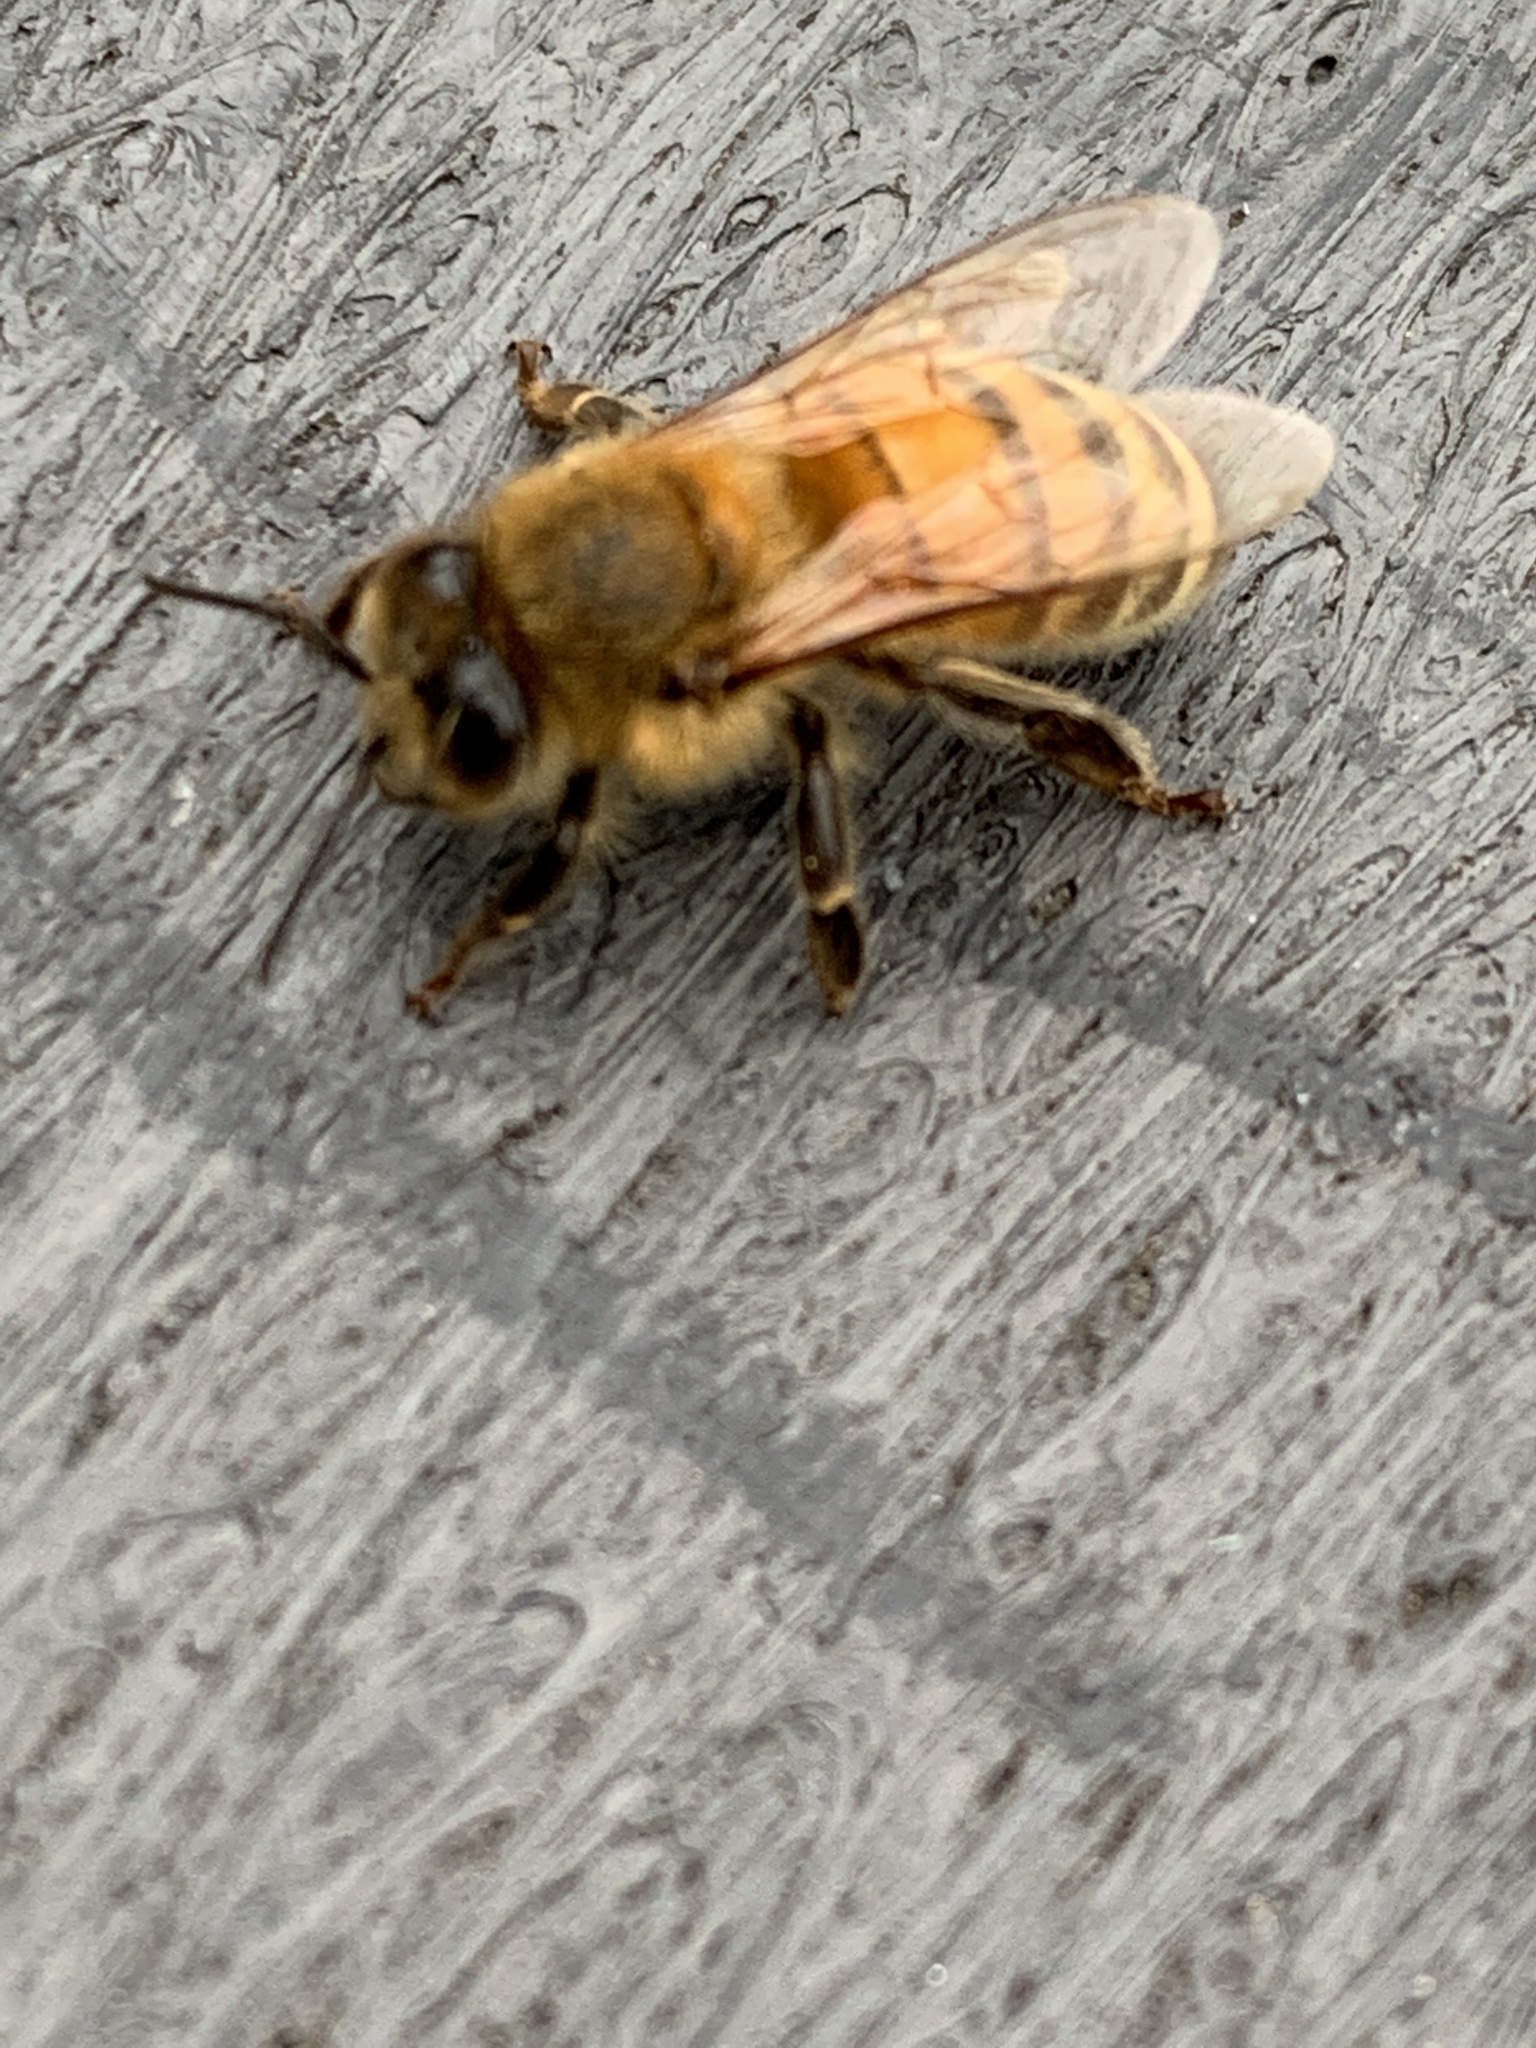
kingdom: Animalia
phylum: Arthropoda
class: Insecta
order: Hymenoptera
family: Apidae
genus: Apis
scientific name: Apis mellifera
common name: Honey bee
